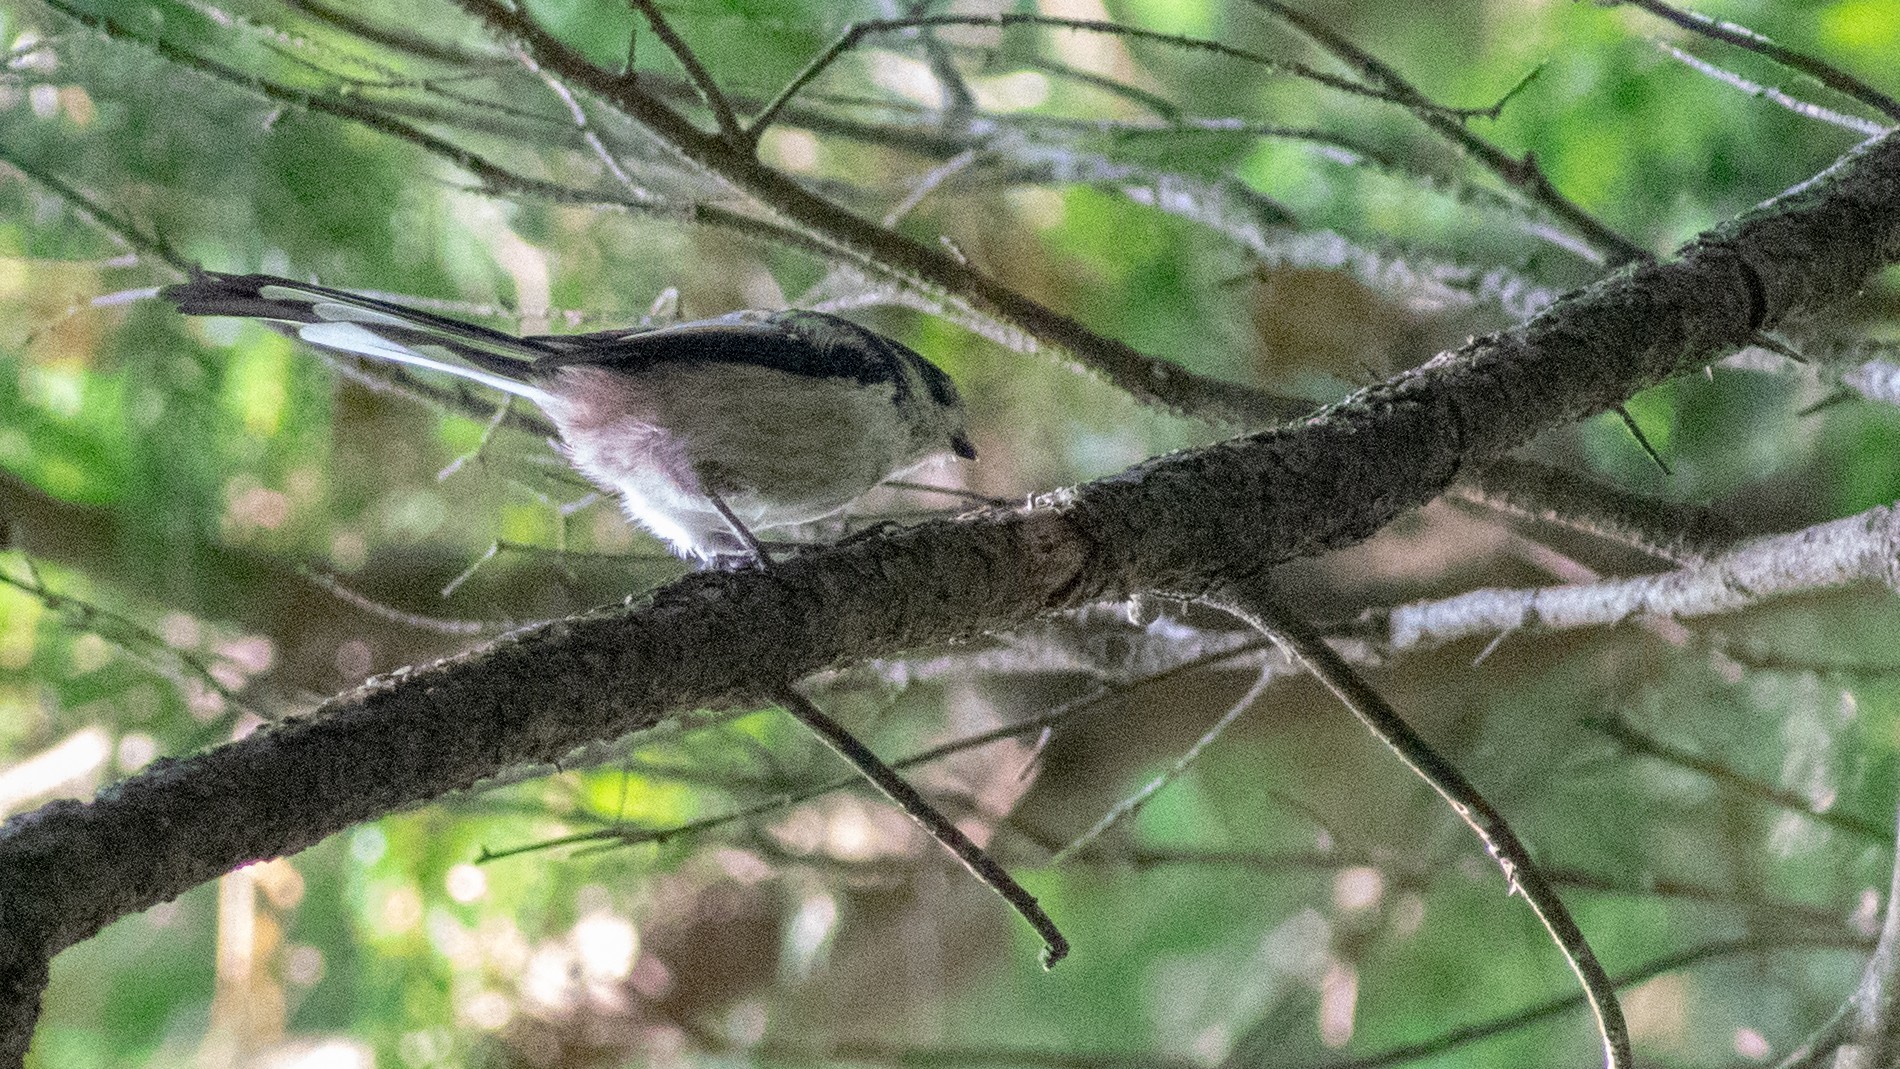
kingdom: Animalia
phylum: Chordata
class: Aves
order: Passeriformes
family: Aegithalidae
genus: Aegithalos
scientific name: Aegithalos caudatus
